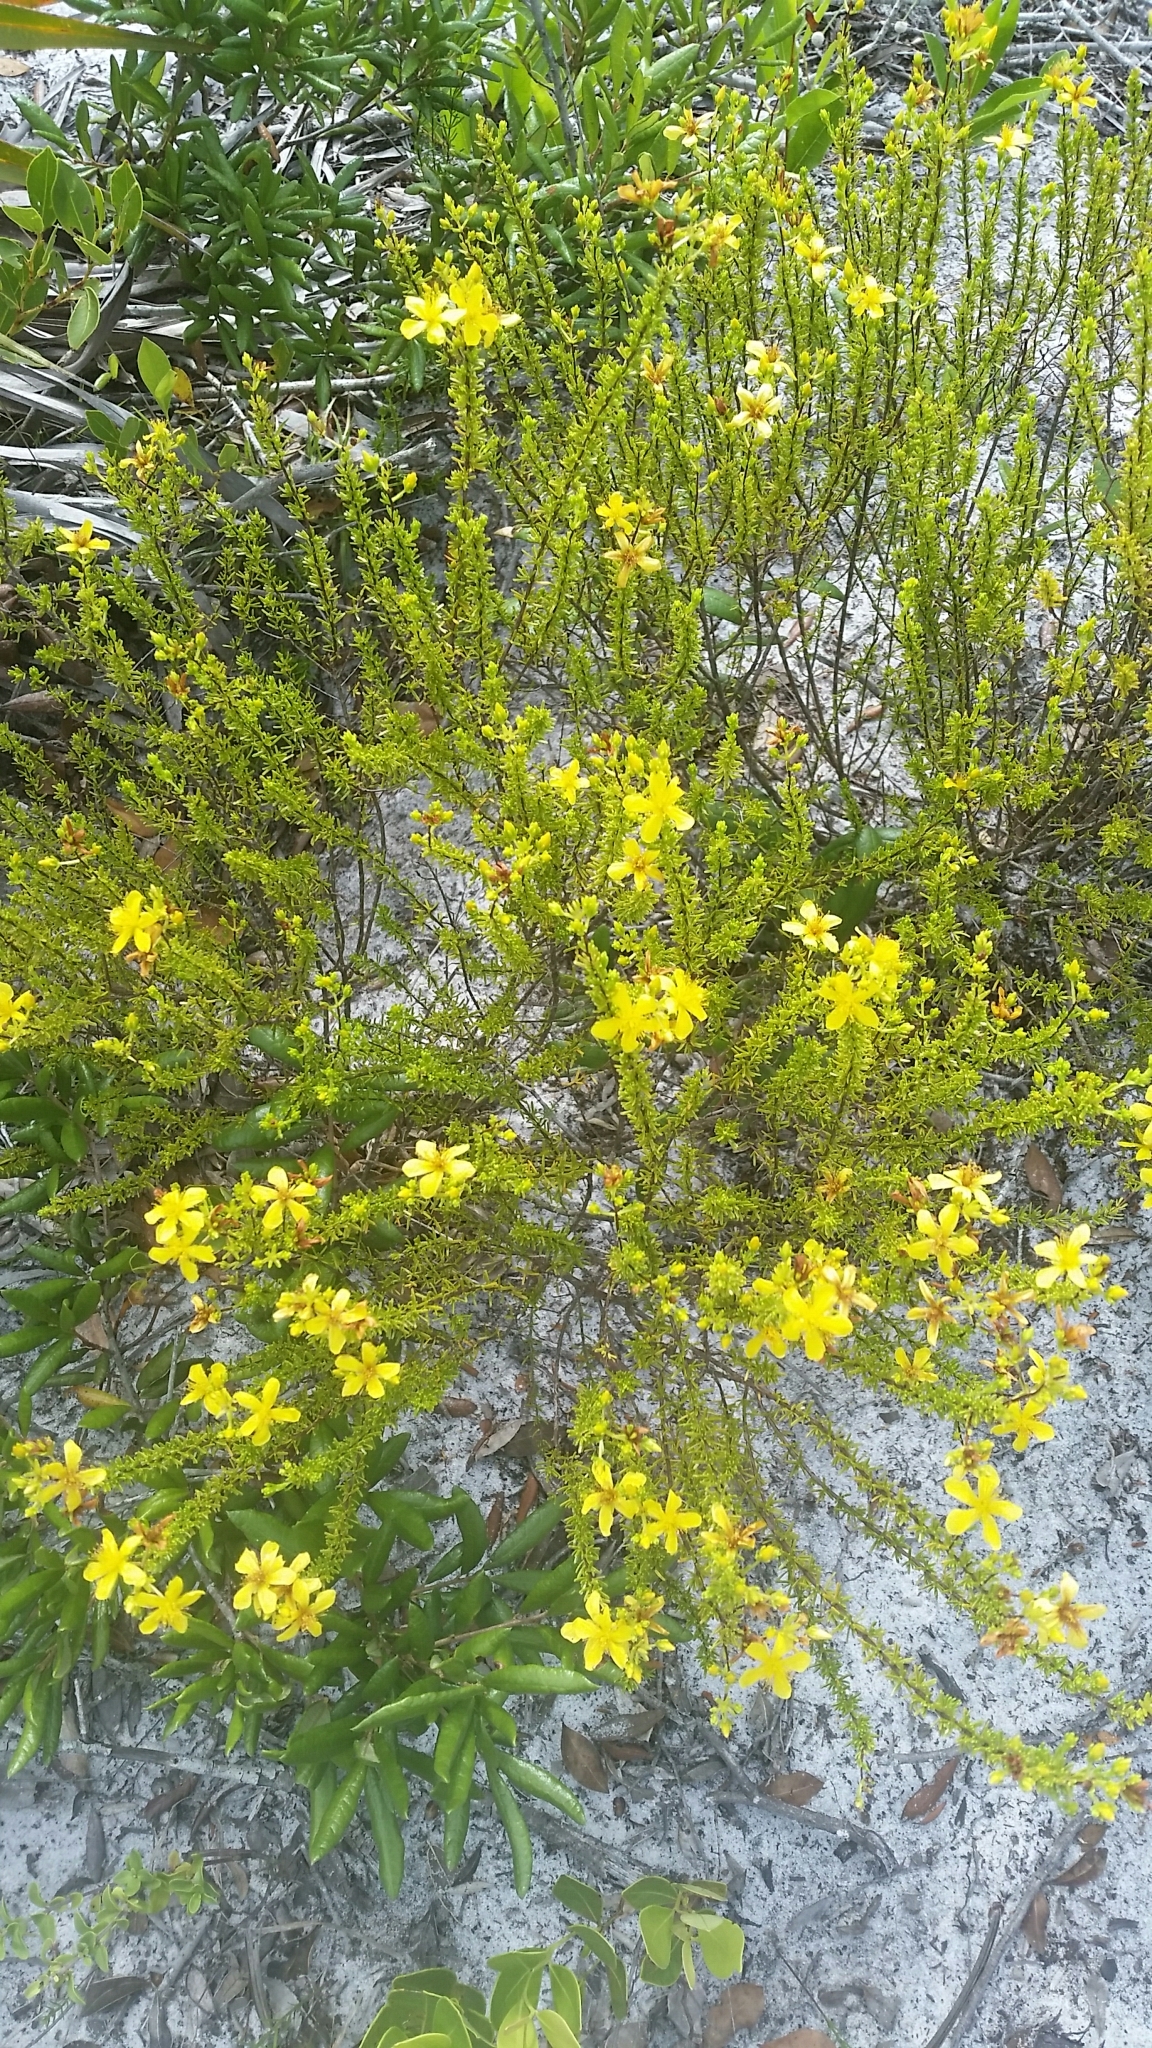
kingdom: Plantae
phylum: Tracheophyta
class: Magnoliopsida
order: Malpighiales
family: Hypericaceae
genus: Hypericum
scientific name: Hypericum tenuifolium
